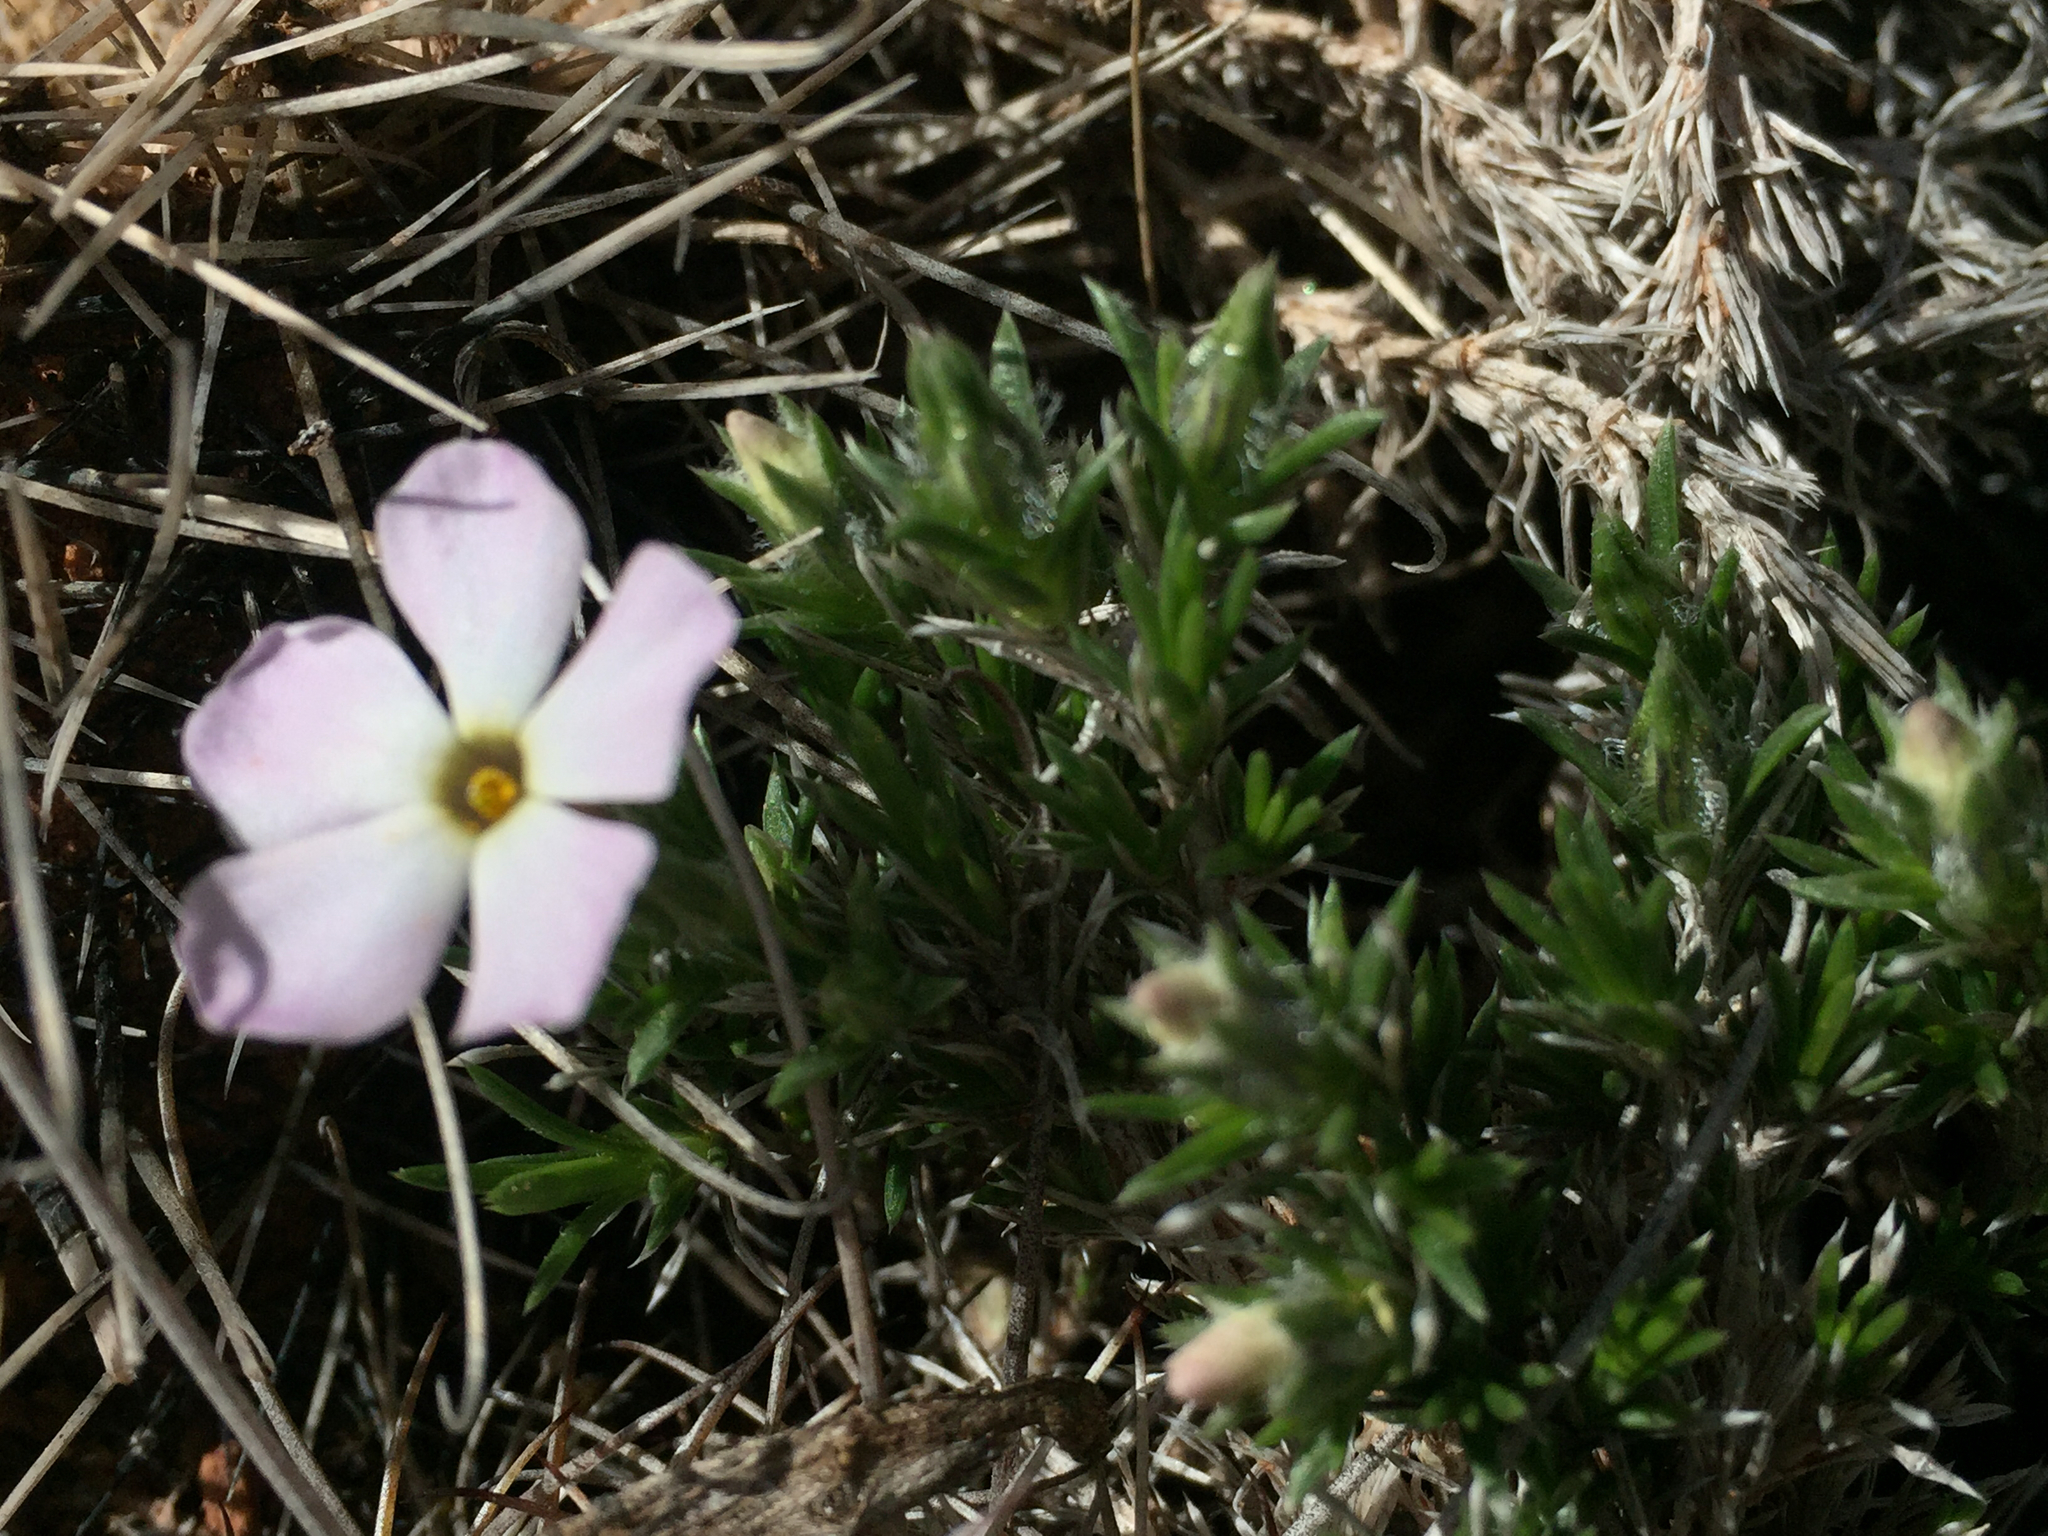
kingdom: Plantae
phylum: Tracheophyta
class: Magnoliopsida
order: Ericales
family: Polemoniaceae
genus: Phlox
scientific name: Phlox hoodii
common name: Moss phlox
